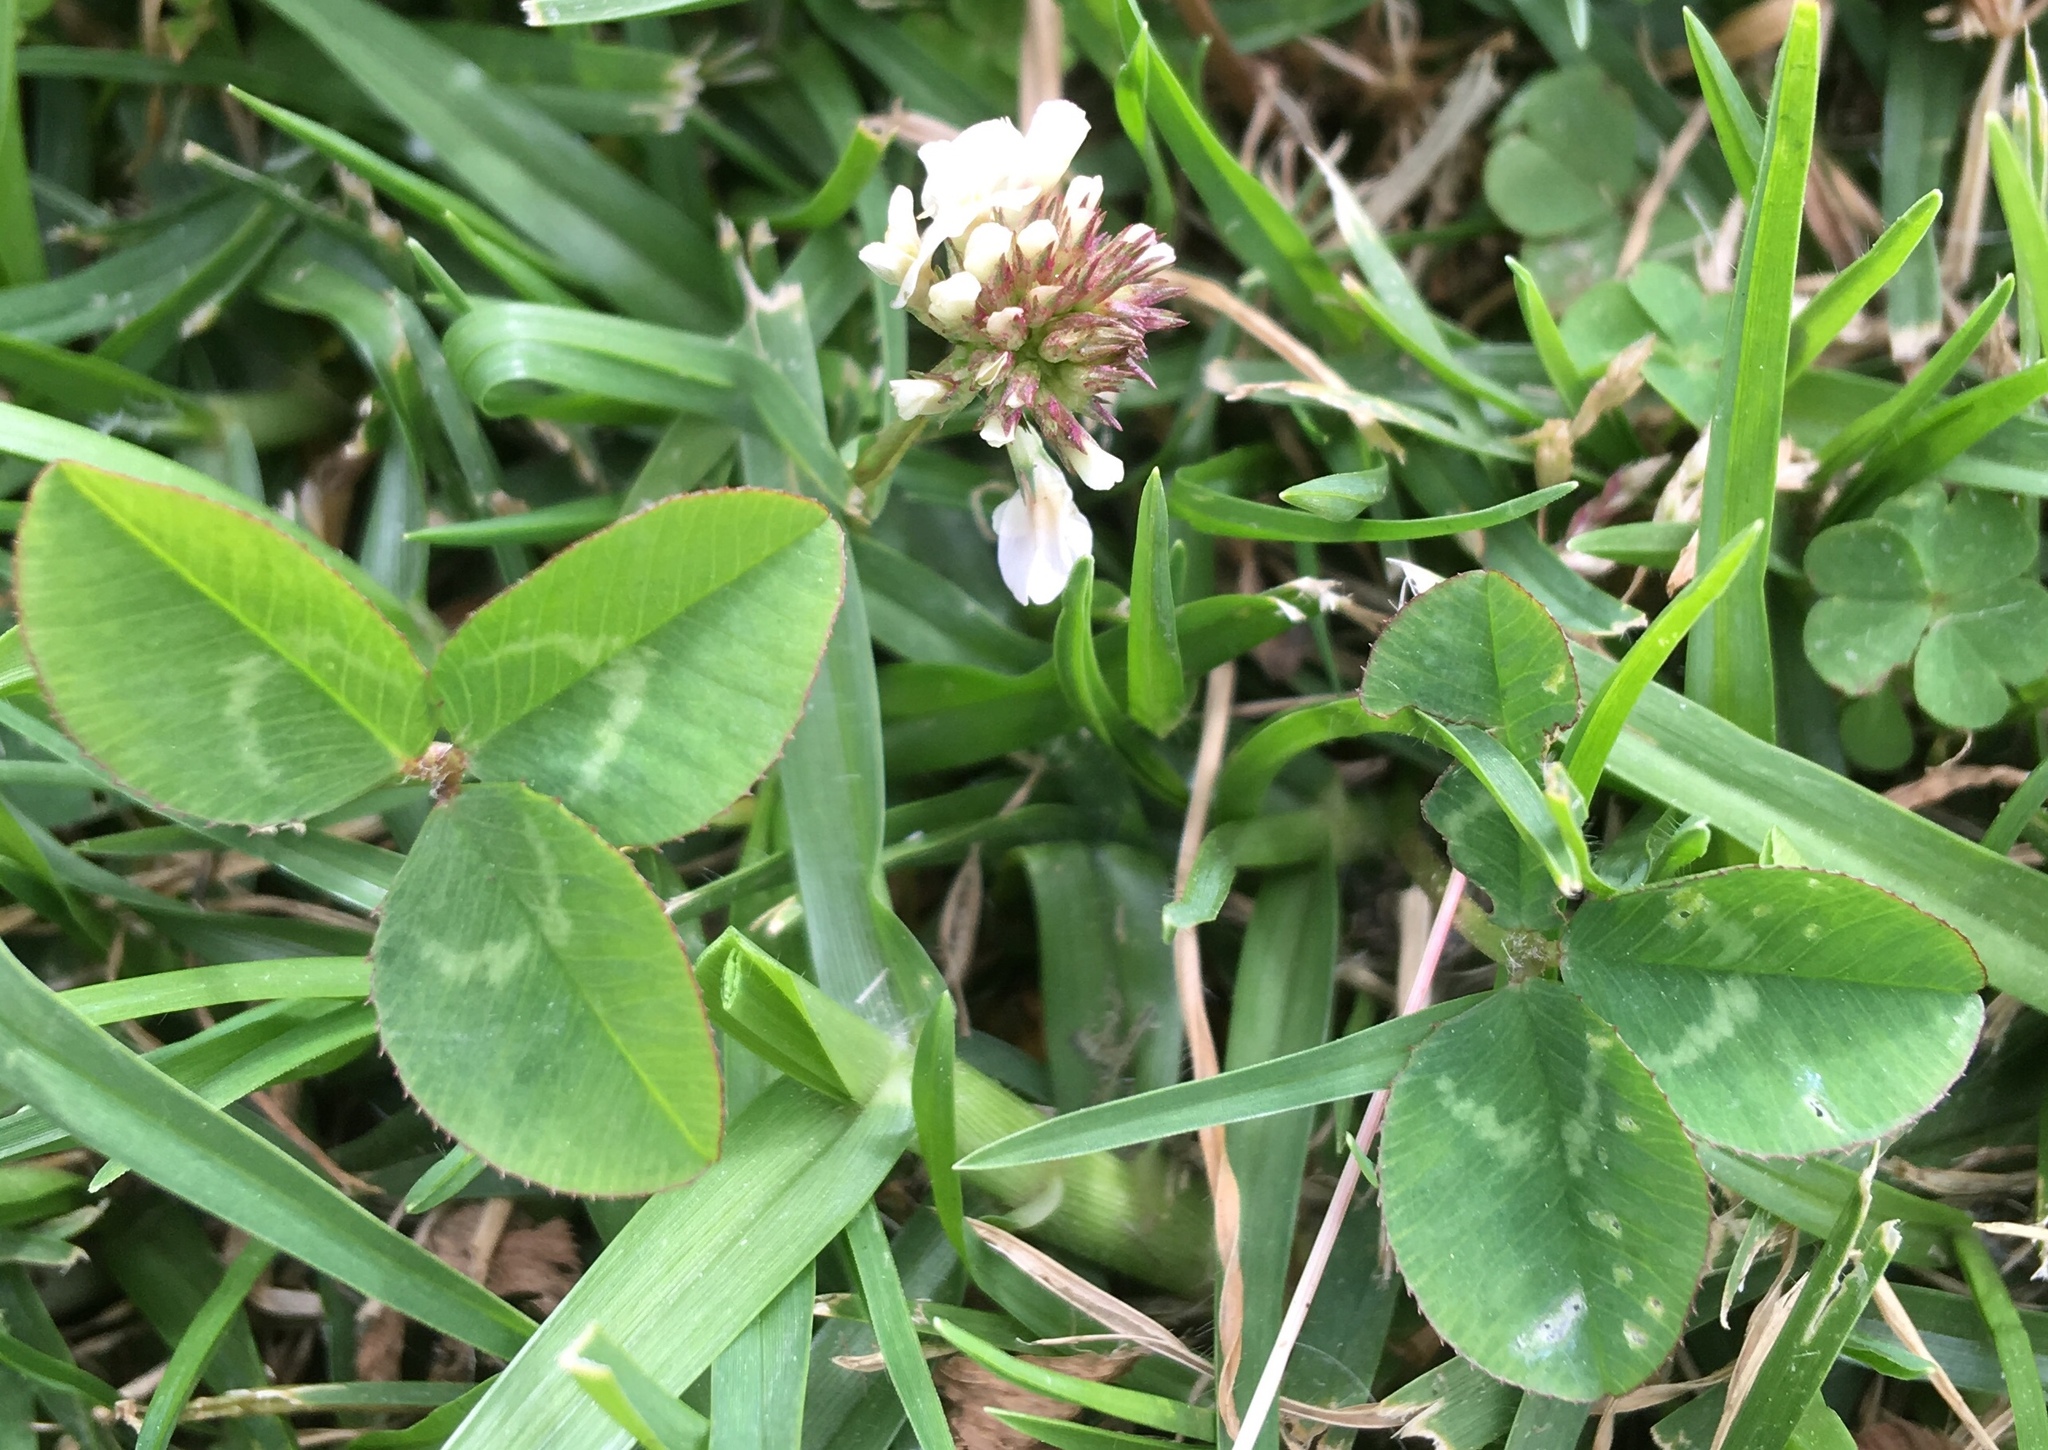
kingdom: Plantae
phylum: Tracheophyta
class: Magnoliopsida
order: Fabales
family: Fabaceae
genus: Trifolium
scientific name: Trifolium repens
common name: White clover
